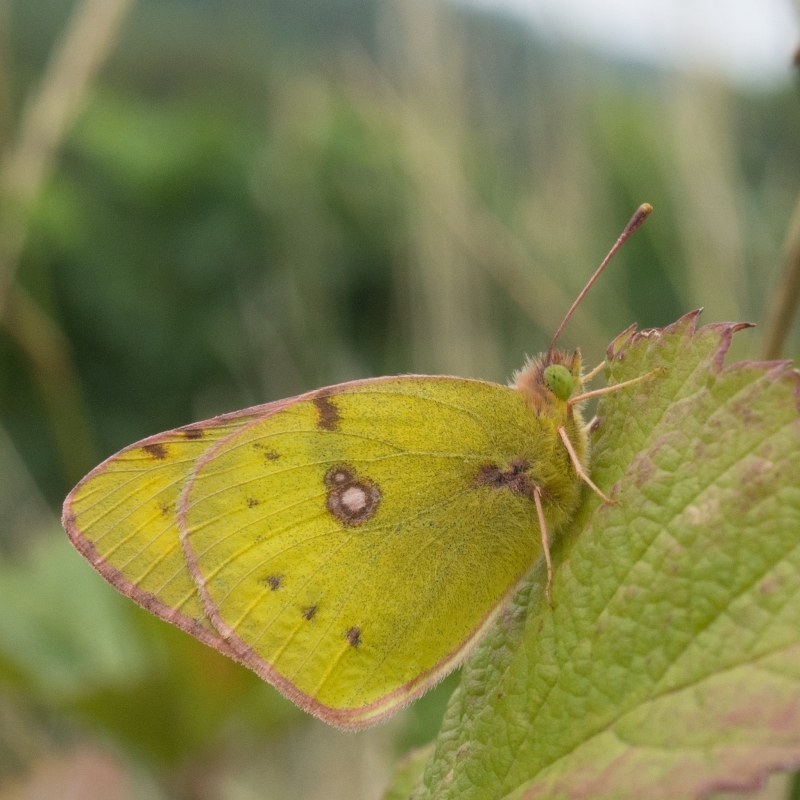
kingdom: Animalia
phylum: Arthropoda
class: Insecta
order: Lepidoptera
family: Pieridae
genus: Colias
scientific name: Colias
